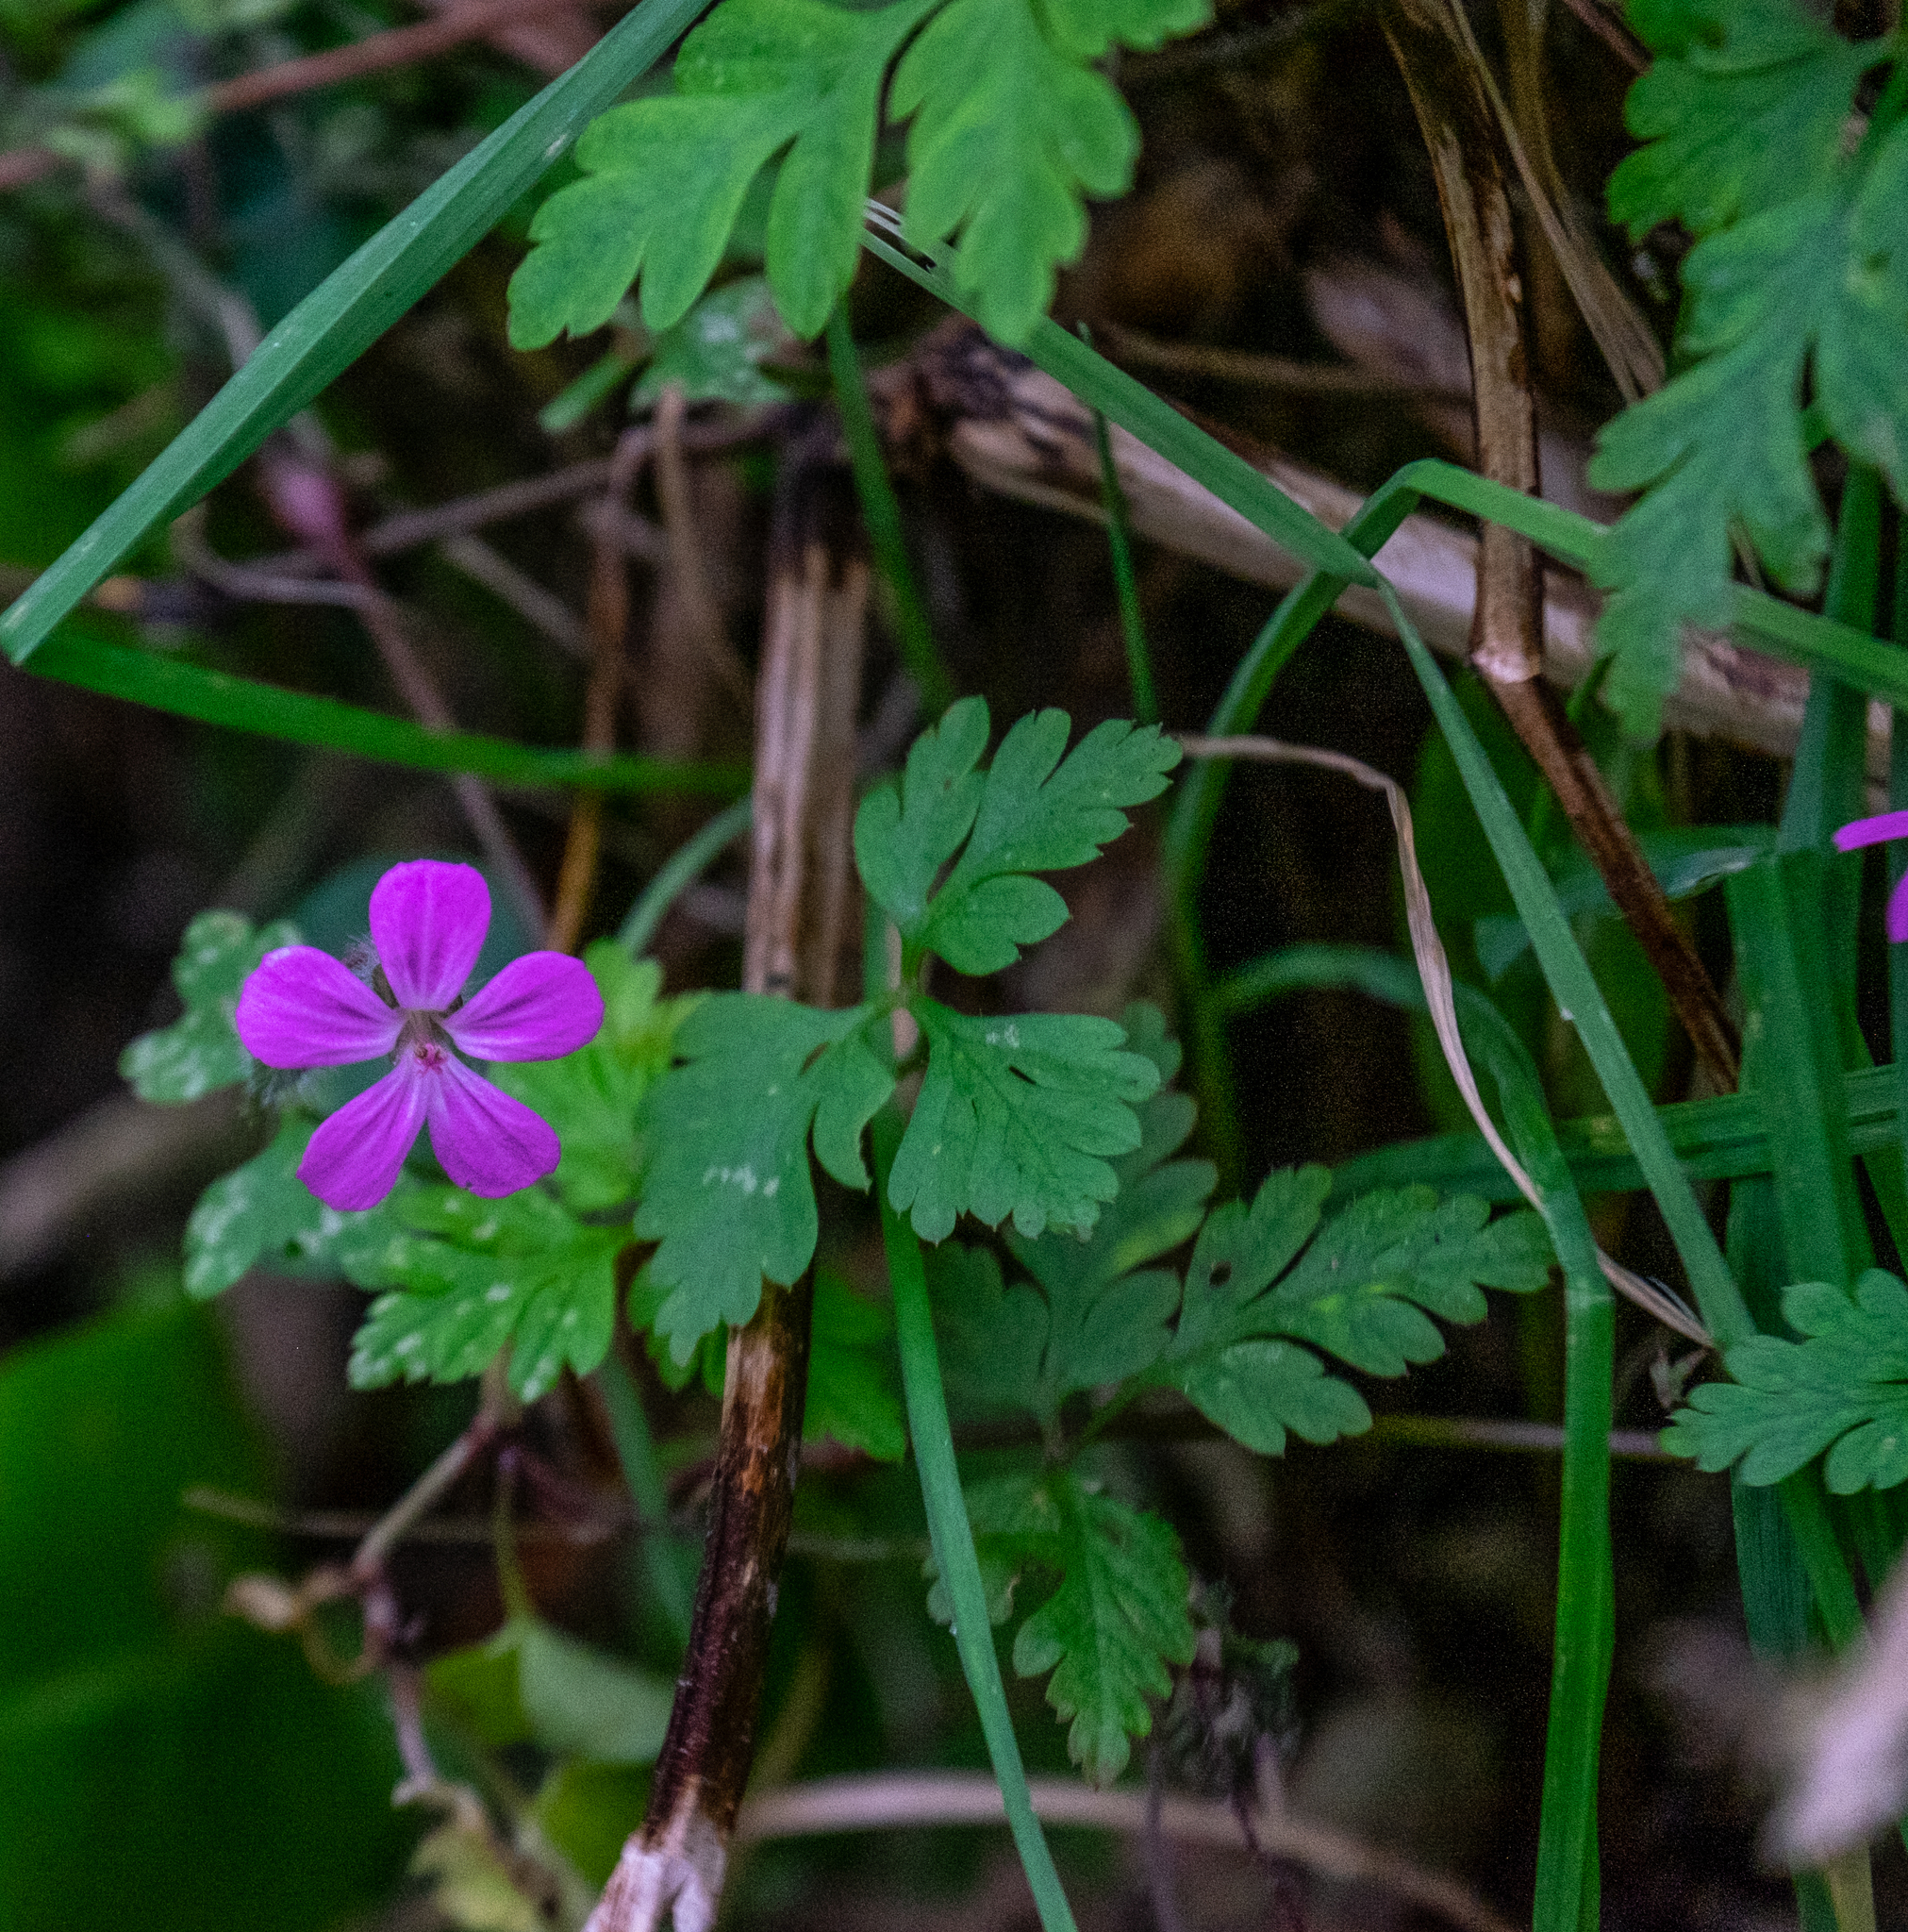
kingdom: Plantae
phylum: Tracheophyta
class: Magnoliopsida
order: Geraniales
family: Geraniaceae
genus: Geranium
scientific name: Geranium robertianum
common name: Herb-robert
